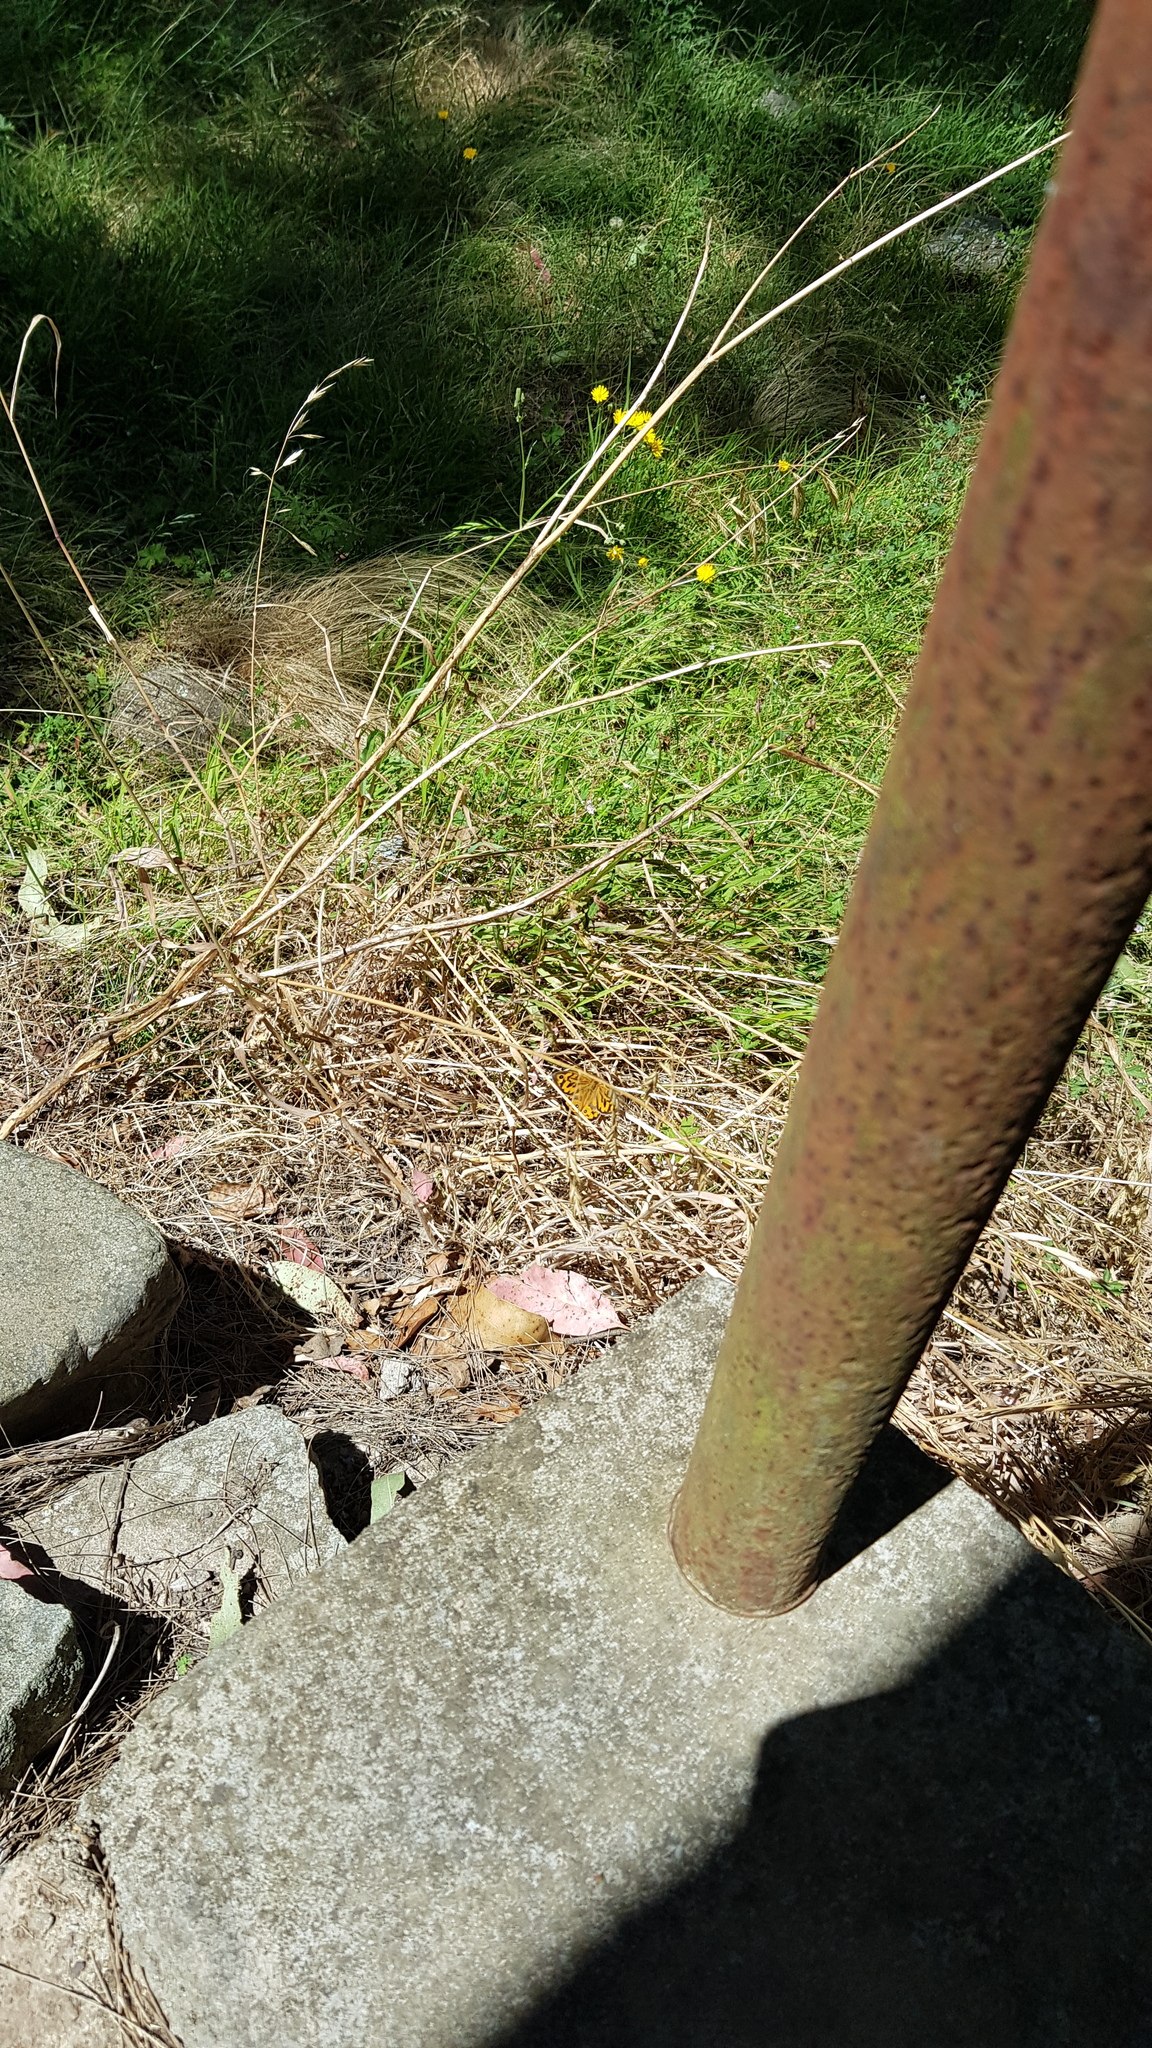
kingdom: Animalia
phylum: Arthropoda
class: Insecta
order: Lepidoptera
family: Nymphalidae
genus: Heteronympha
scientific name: Heteronympha merope
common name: Common brown
